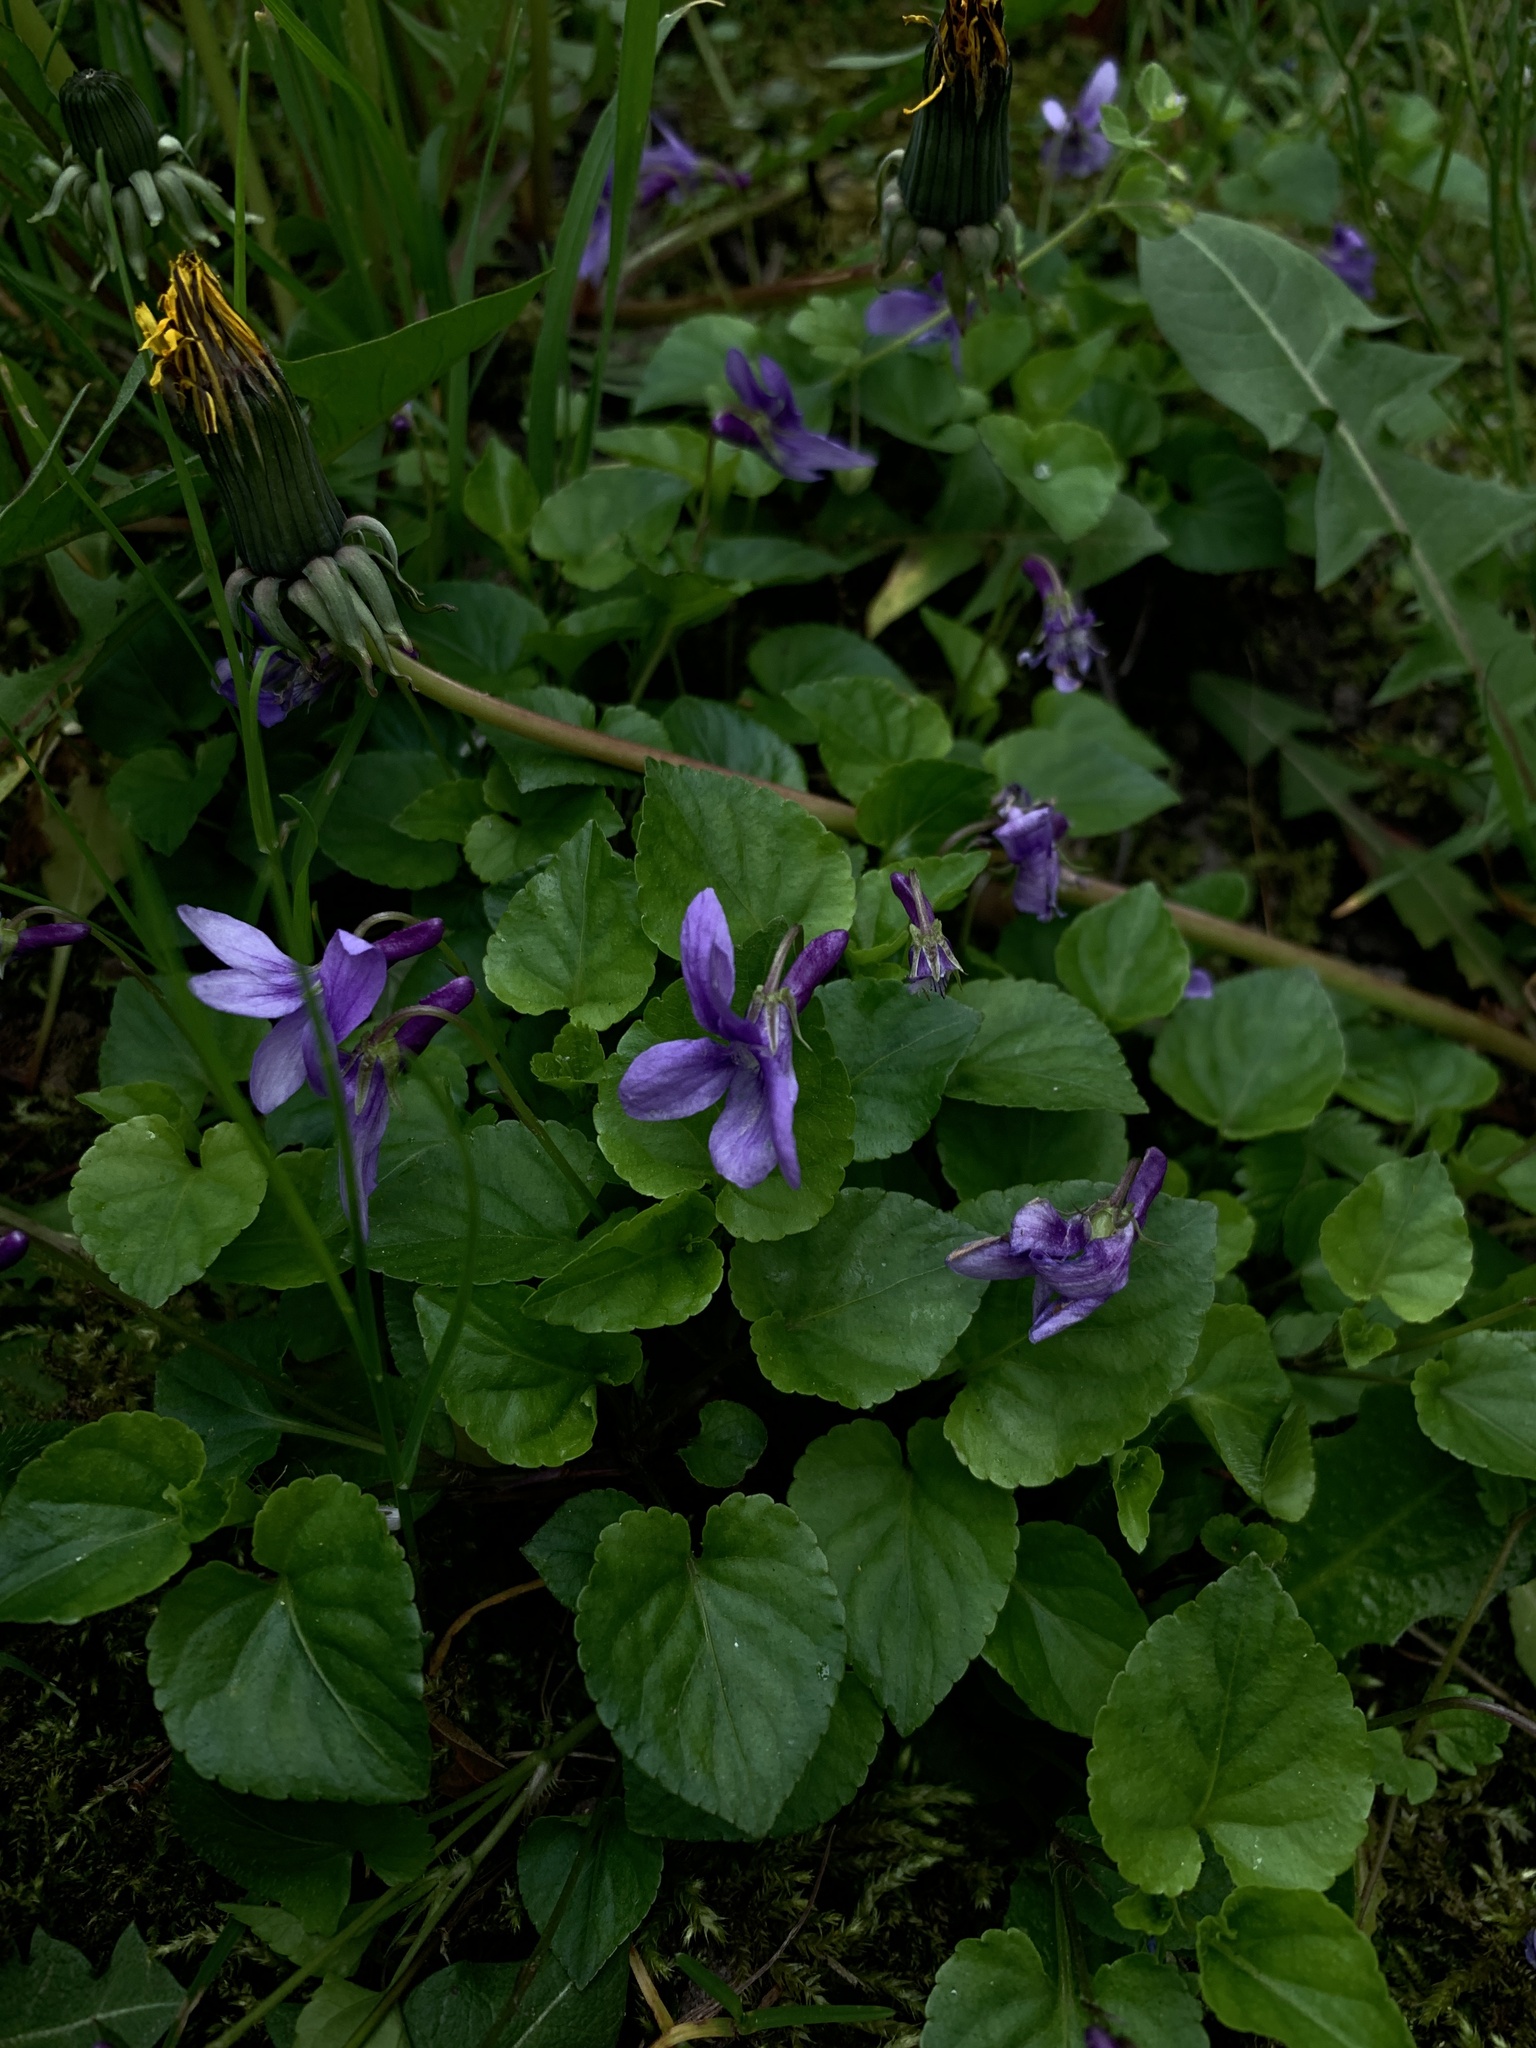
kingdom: Plantae
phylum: Tracheophyta
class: Magnoliopsida
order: Malpighiales
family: Violaceae
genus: Viola
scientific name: Viola reichenbachiana
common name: Early dog-violet
